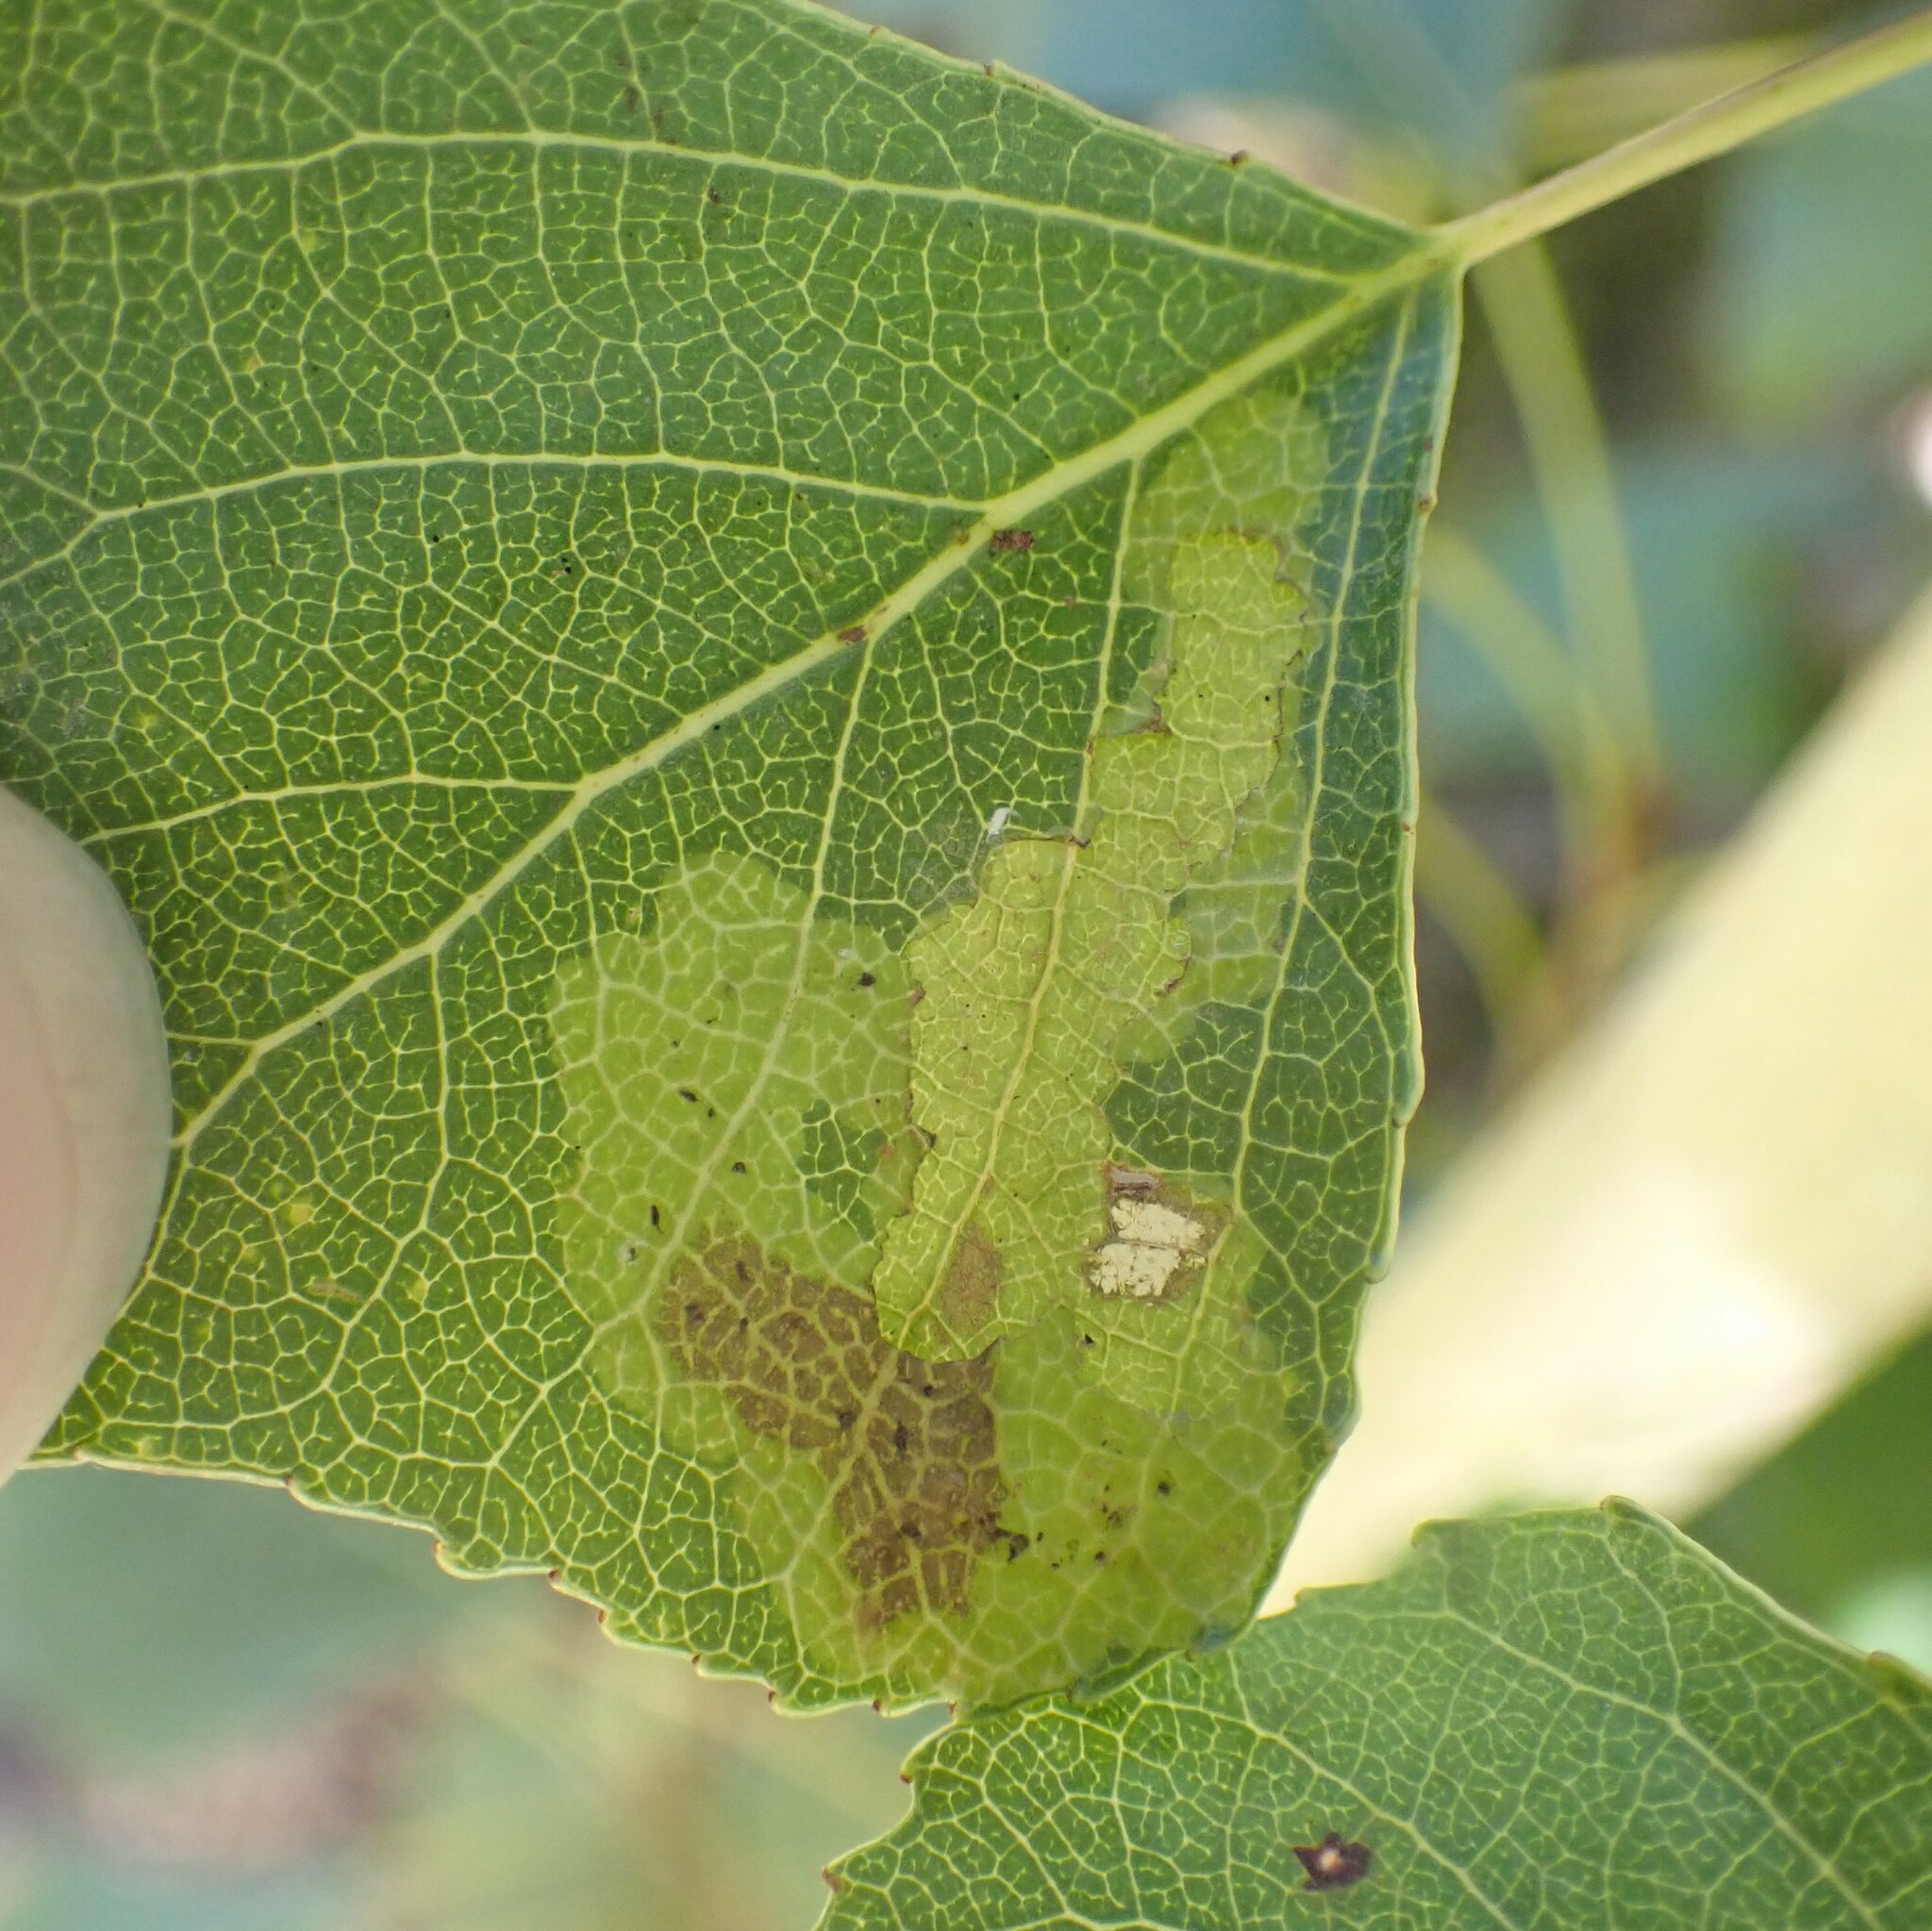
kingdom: Animalia
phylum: Arthropoda
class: Insecta
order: Diptera
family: Agromyzidae
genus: Aulagromyza
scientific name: Aulagromyza populicola
